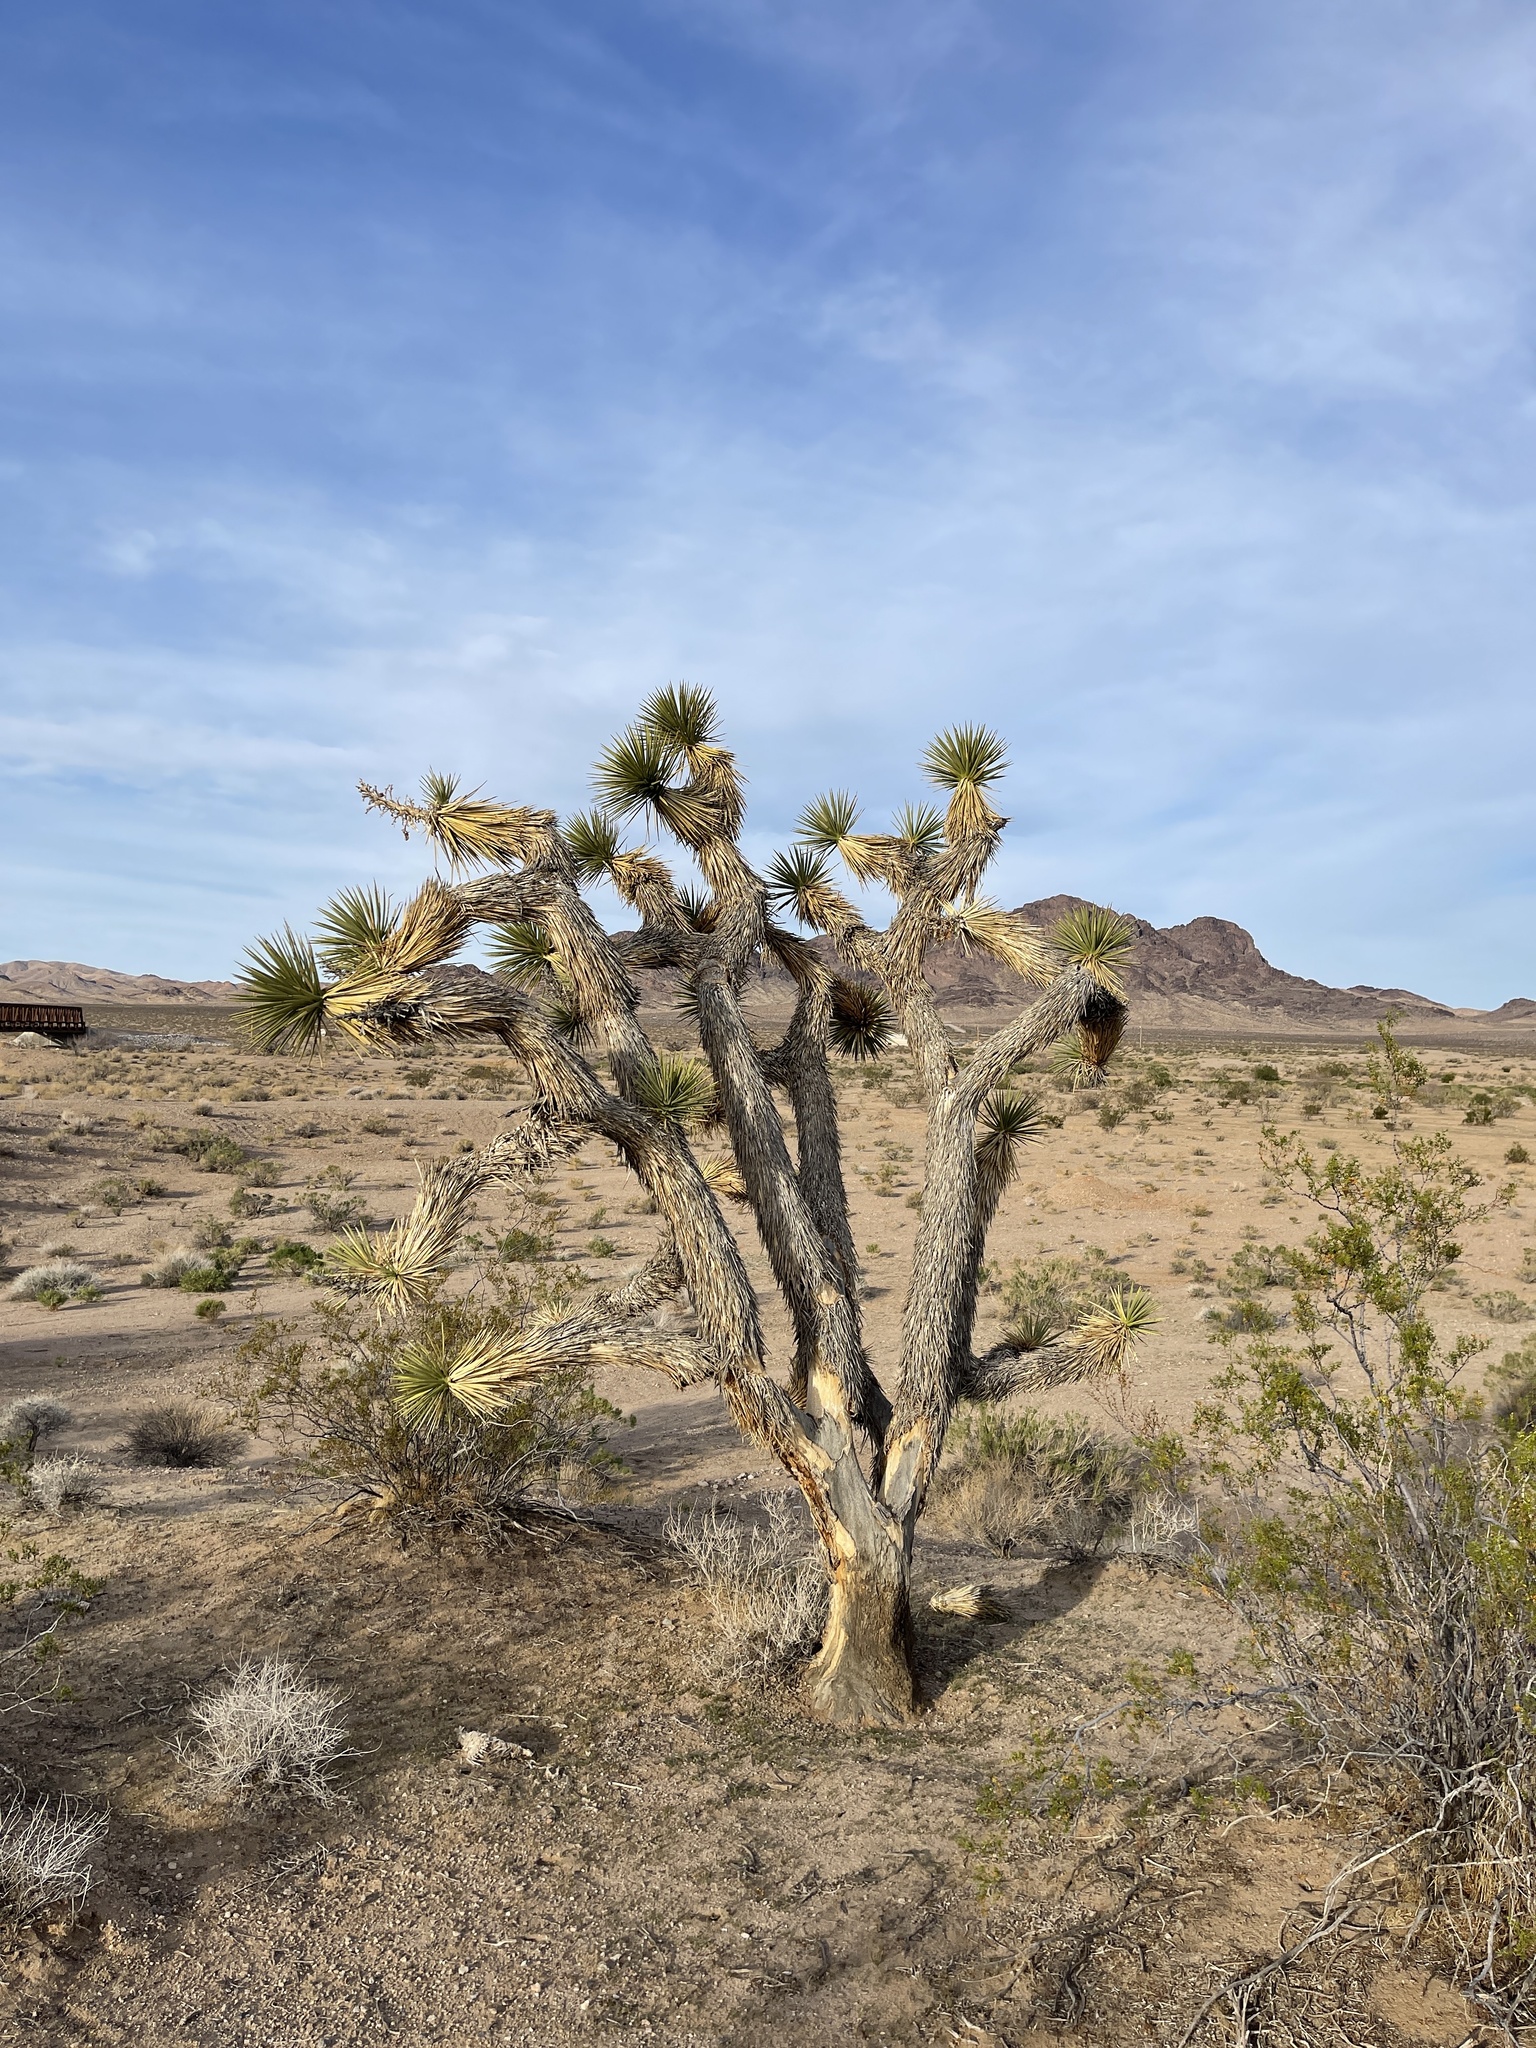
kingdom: Plantae
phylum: Tracheophyta
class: Liliopsida
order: Asparagales
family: Asparagaceae
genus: Yucca
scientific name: Yucca brevifolia
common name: Joshua tree
